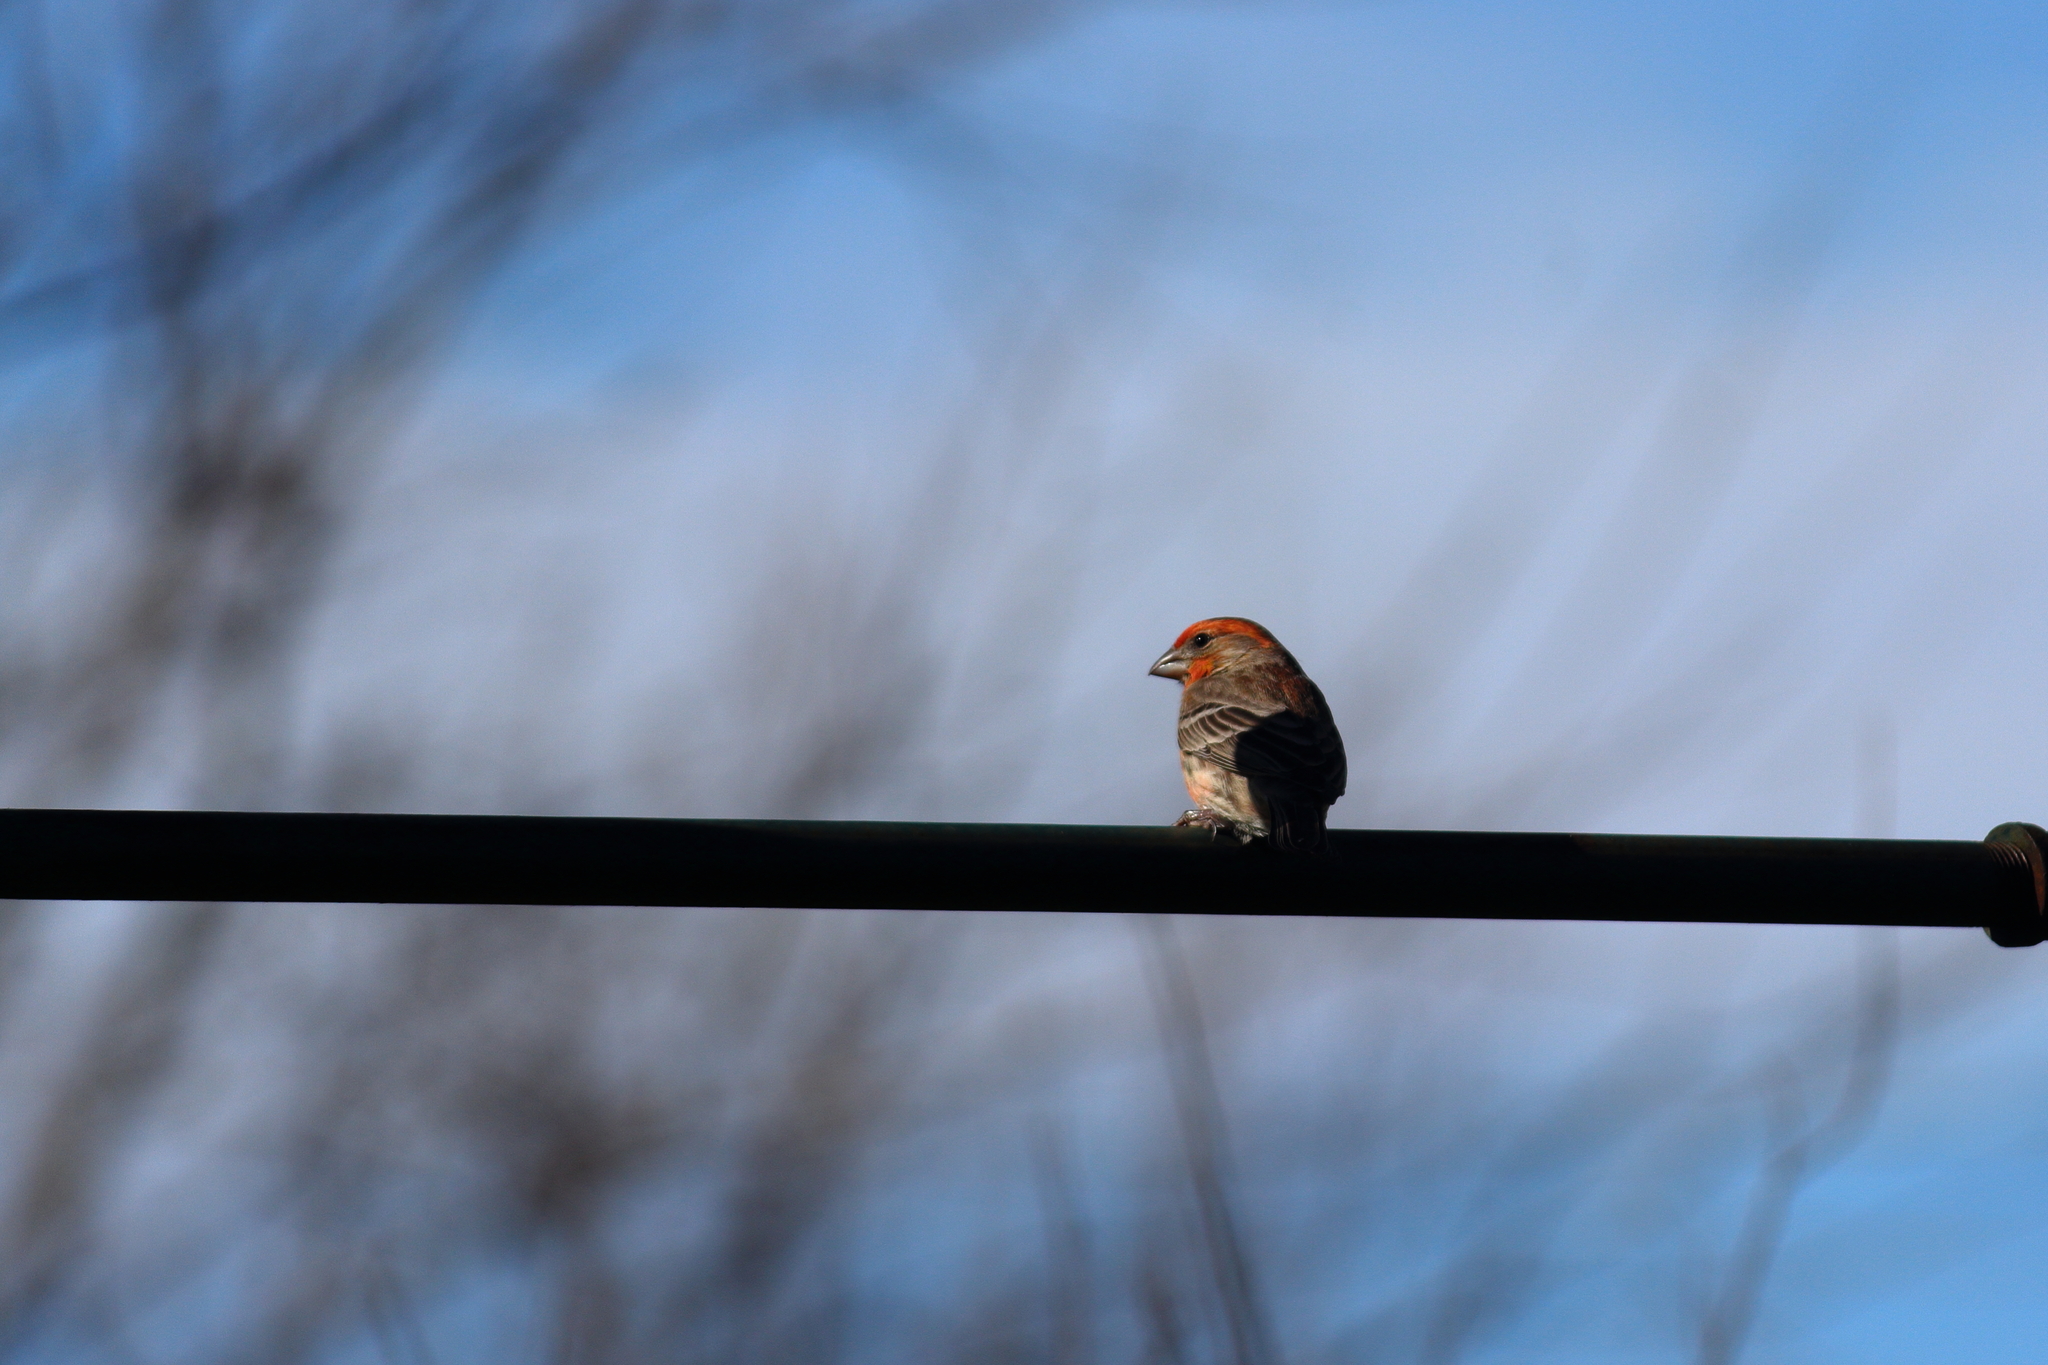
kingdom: Animalia
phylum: Chordata
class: Aves
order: Passeriformes
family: Fringillidae
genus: Haemorhous
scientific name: Haemorhous mexicanus
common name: House finch
